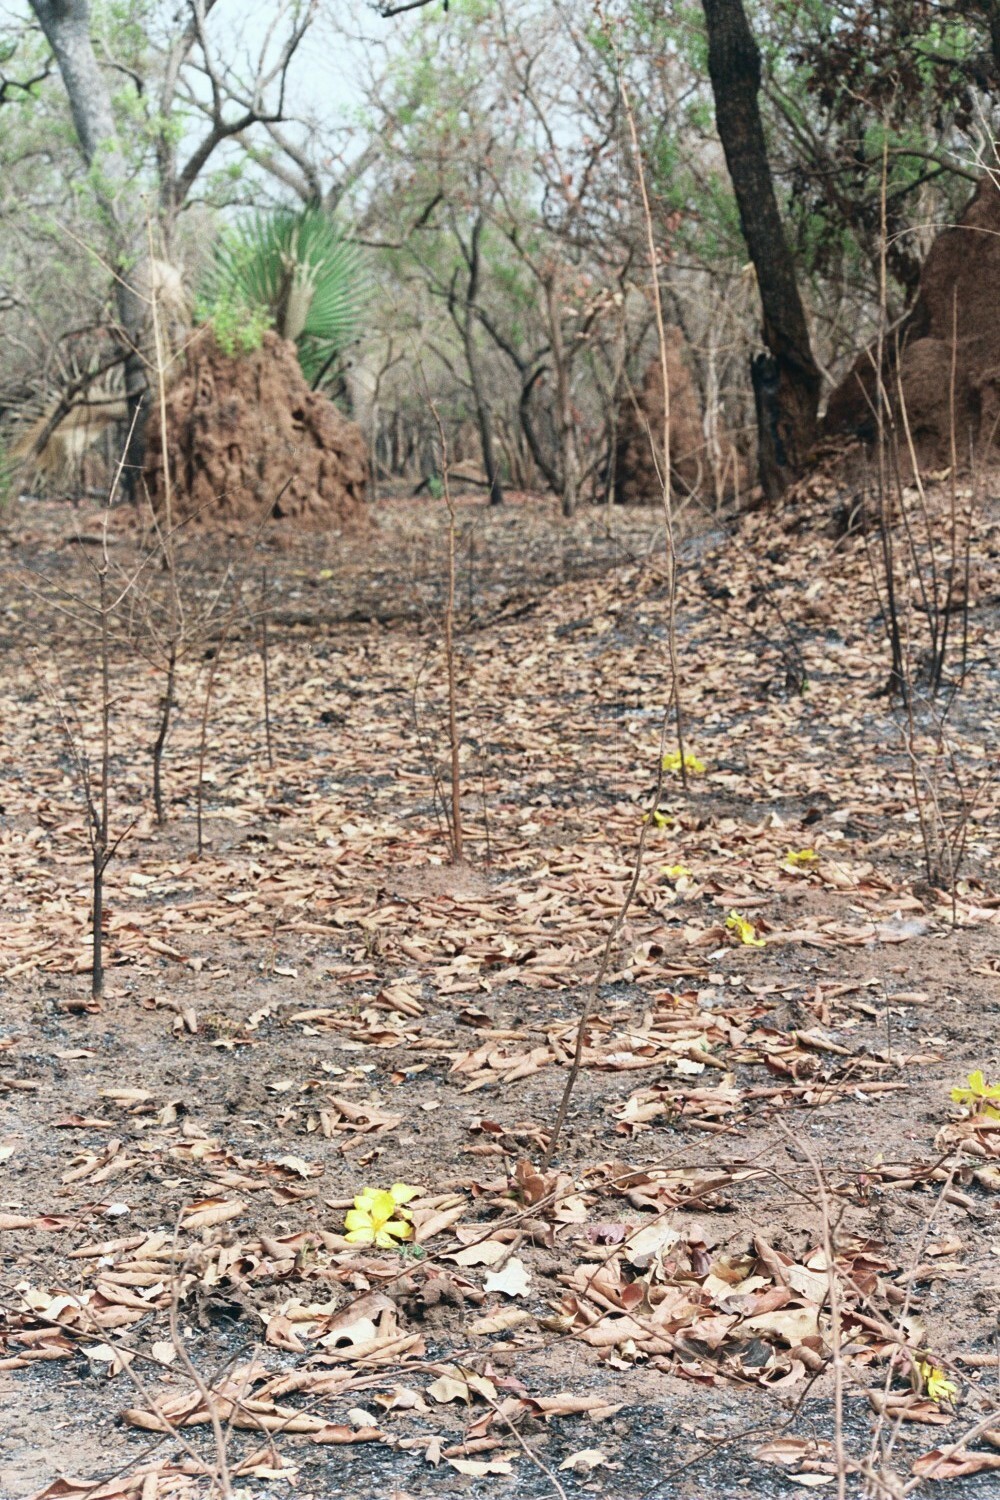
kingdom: Plantae
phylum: Tracheophyta
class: Magnoliopsida
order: Malvales
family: Cochlospermaceae
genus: Cochlospermum
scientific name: Cochlospermum tinctorium
